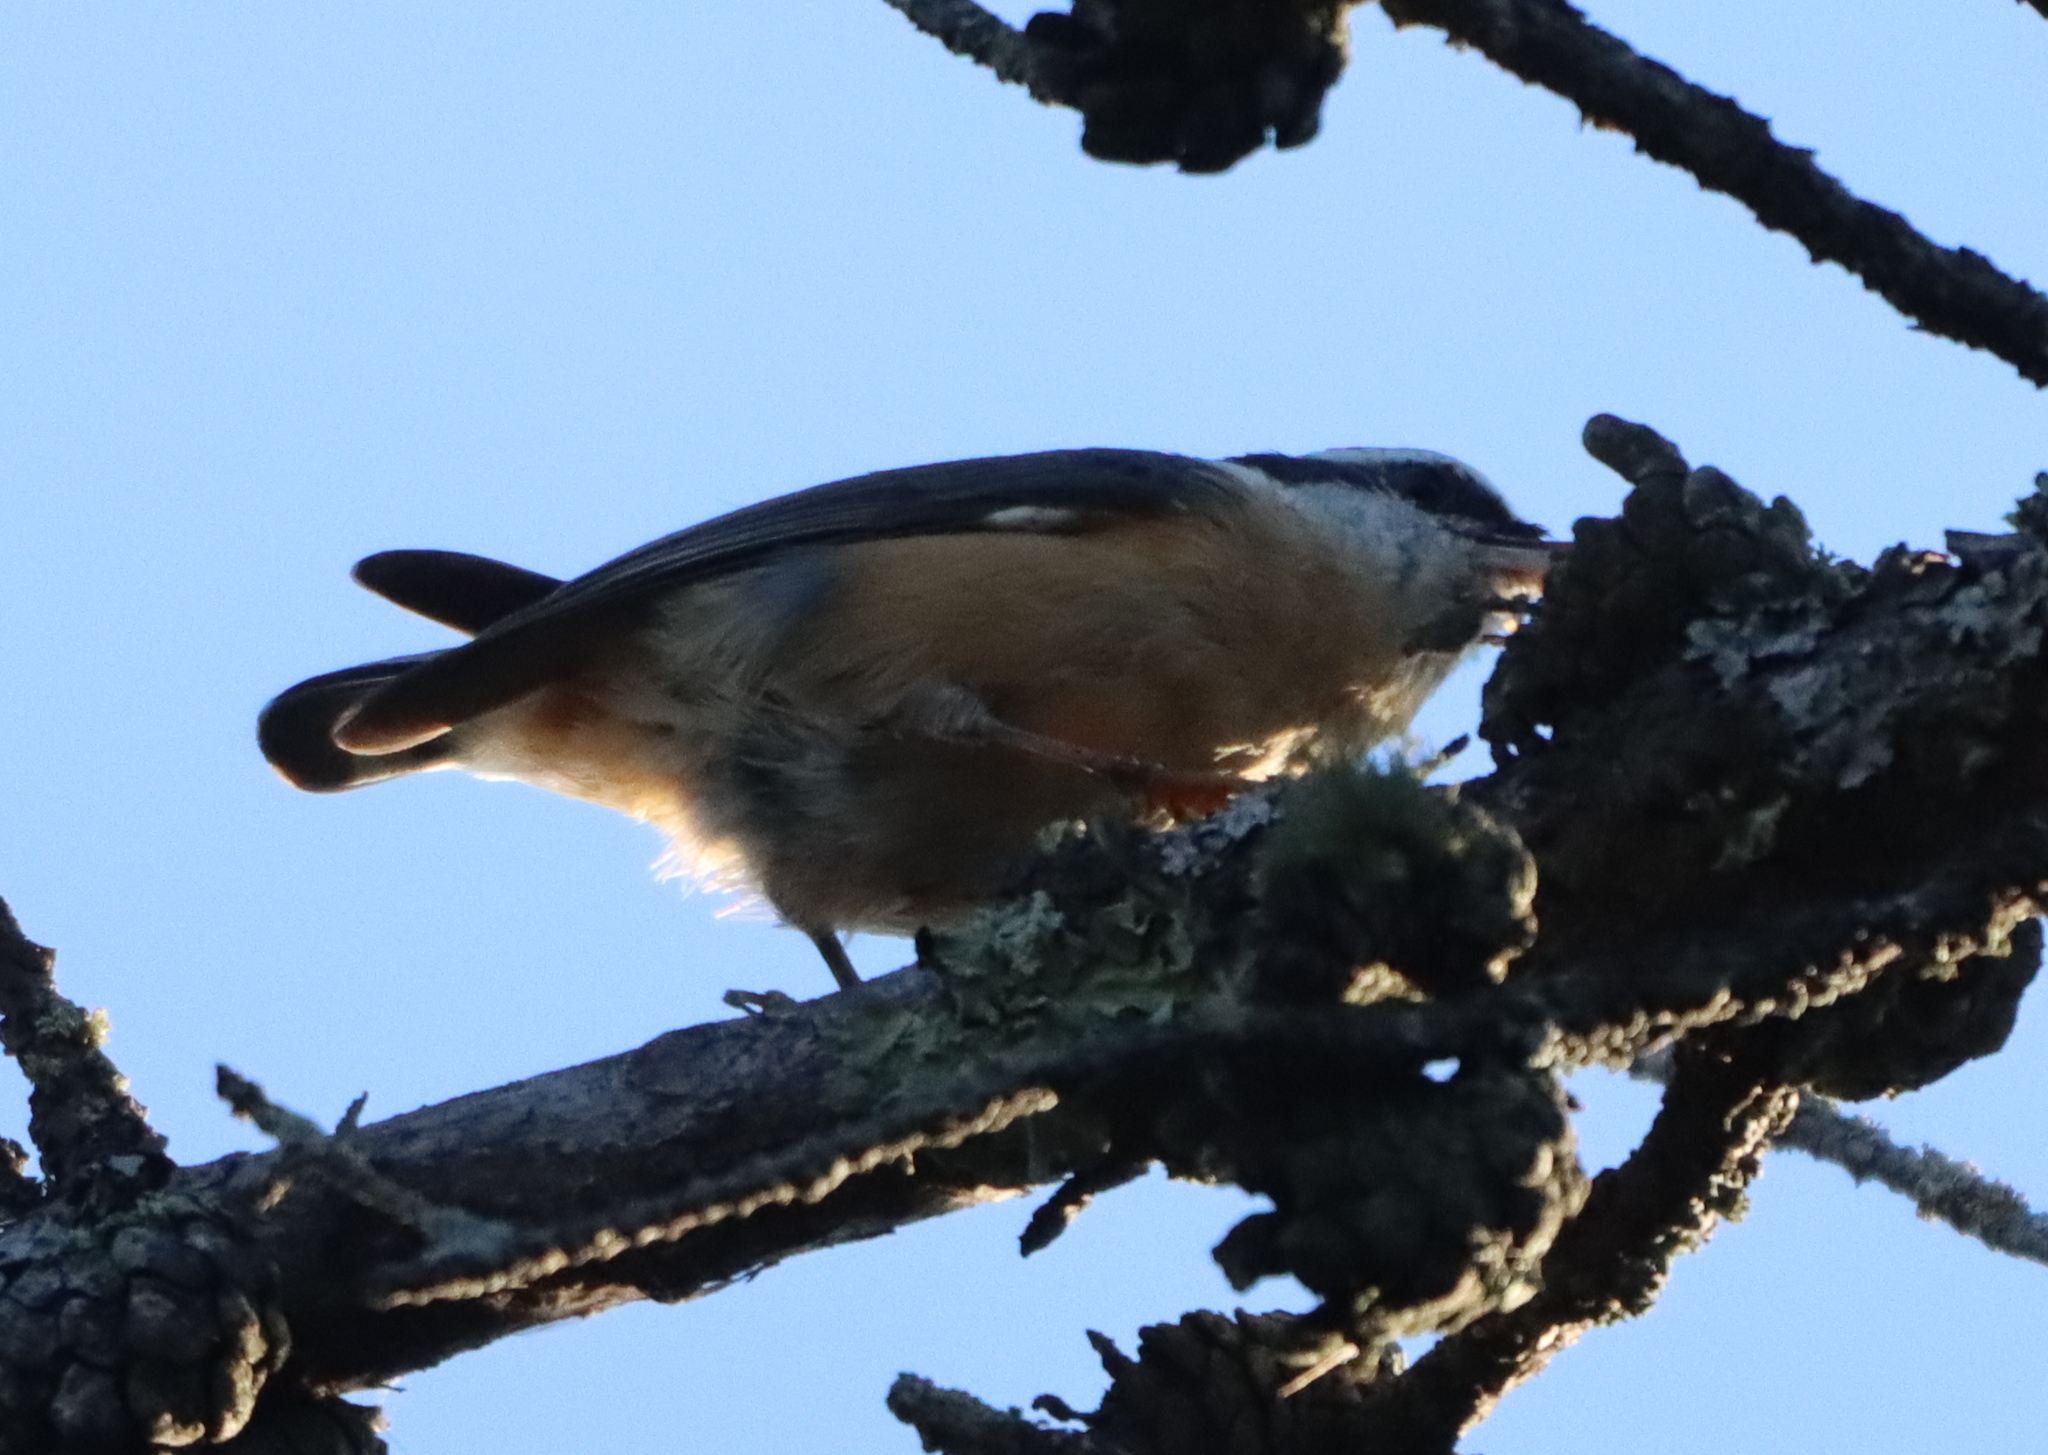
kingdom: Animalia
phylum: Chordata
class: Aves
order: Passeriformes
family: Sittidae
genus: Sitta
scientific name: Sitta canadensis
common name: Red-breasted nuthatch
